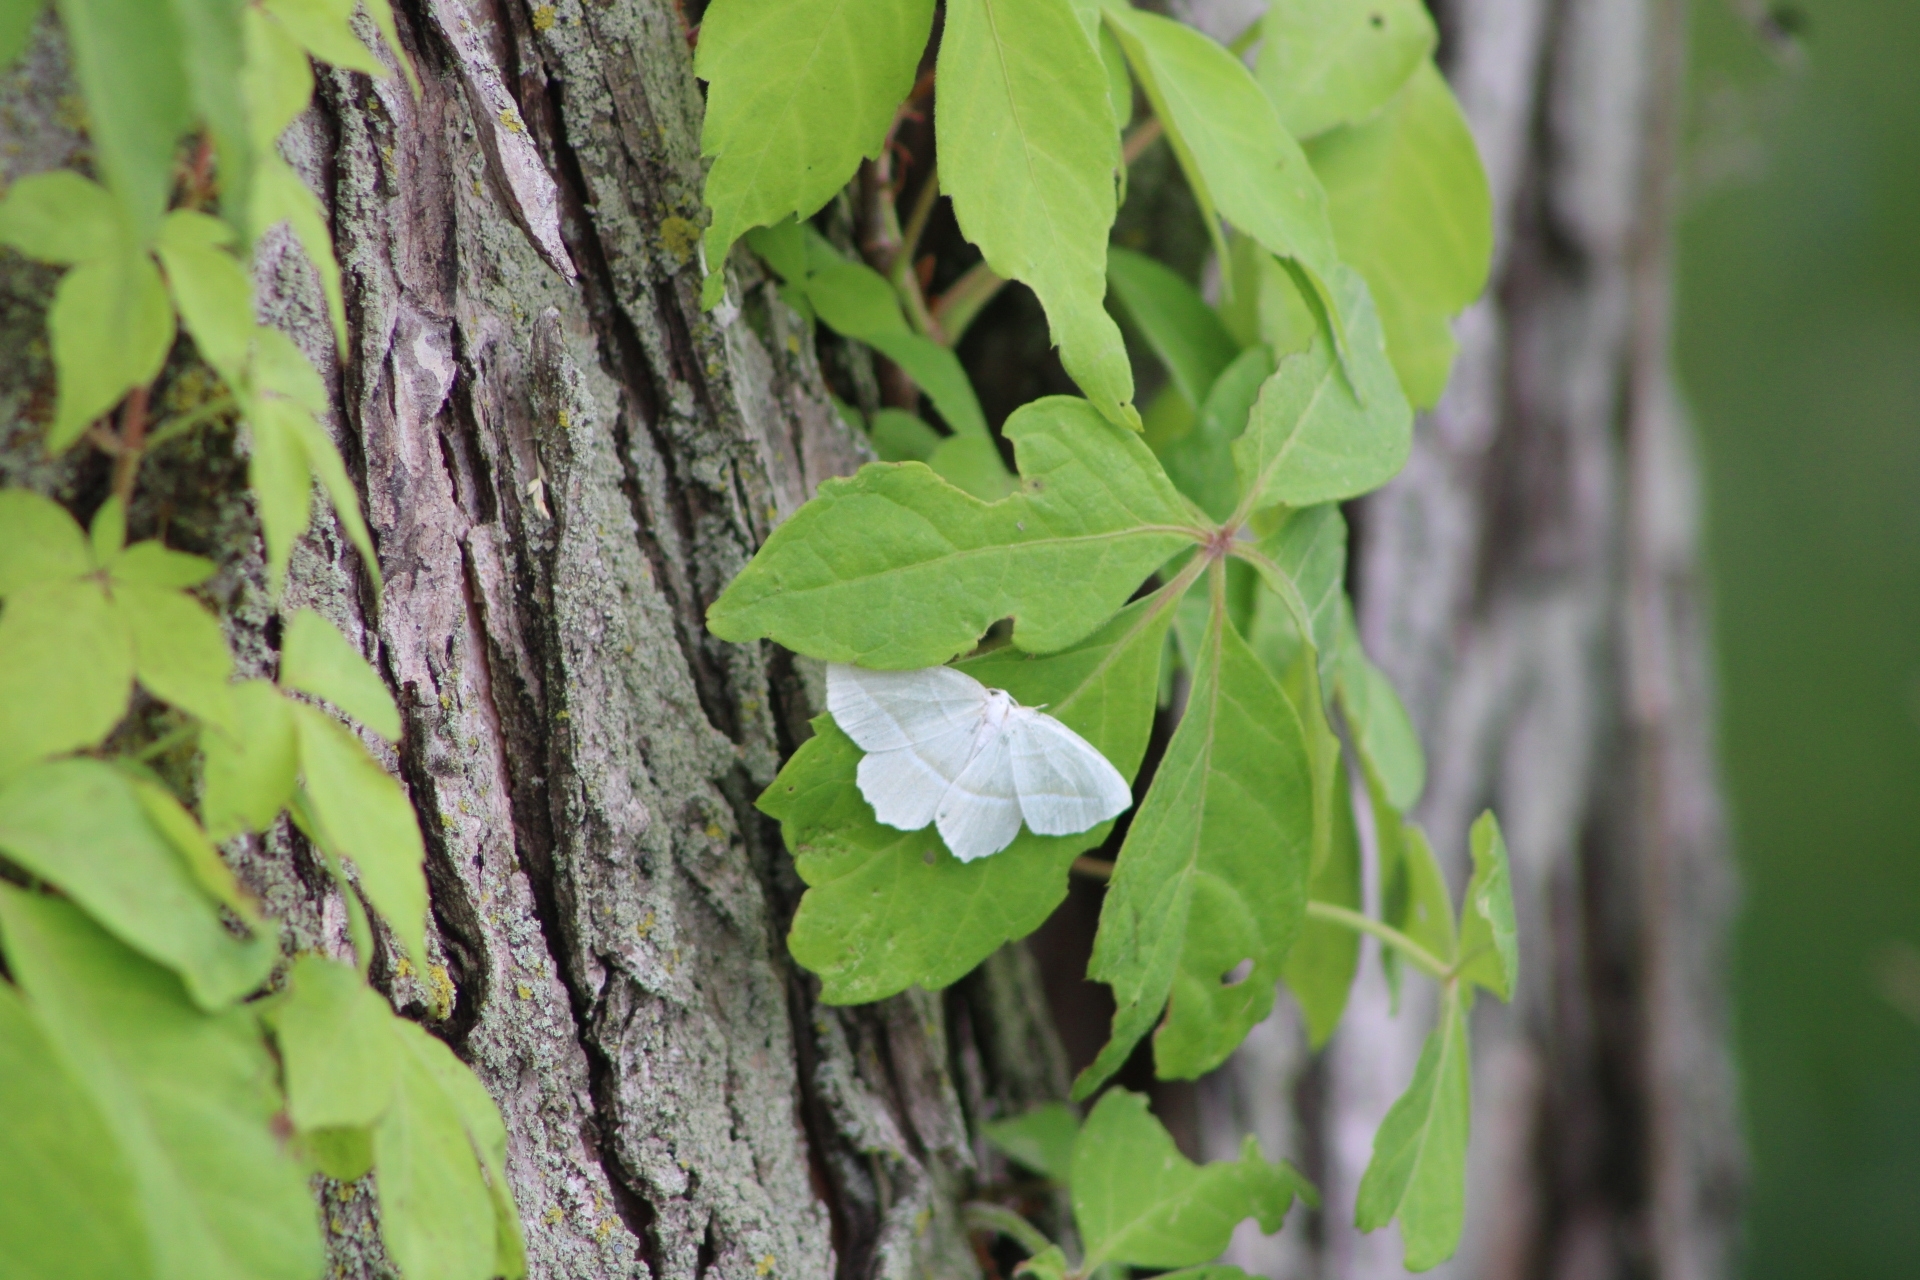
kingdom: Animalia
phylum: Arthropoda
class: Insecta
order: Lepidoptera
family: Geometridae
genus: Campaea
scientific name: Campaea perlata
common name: Fringed looper
